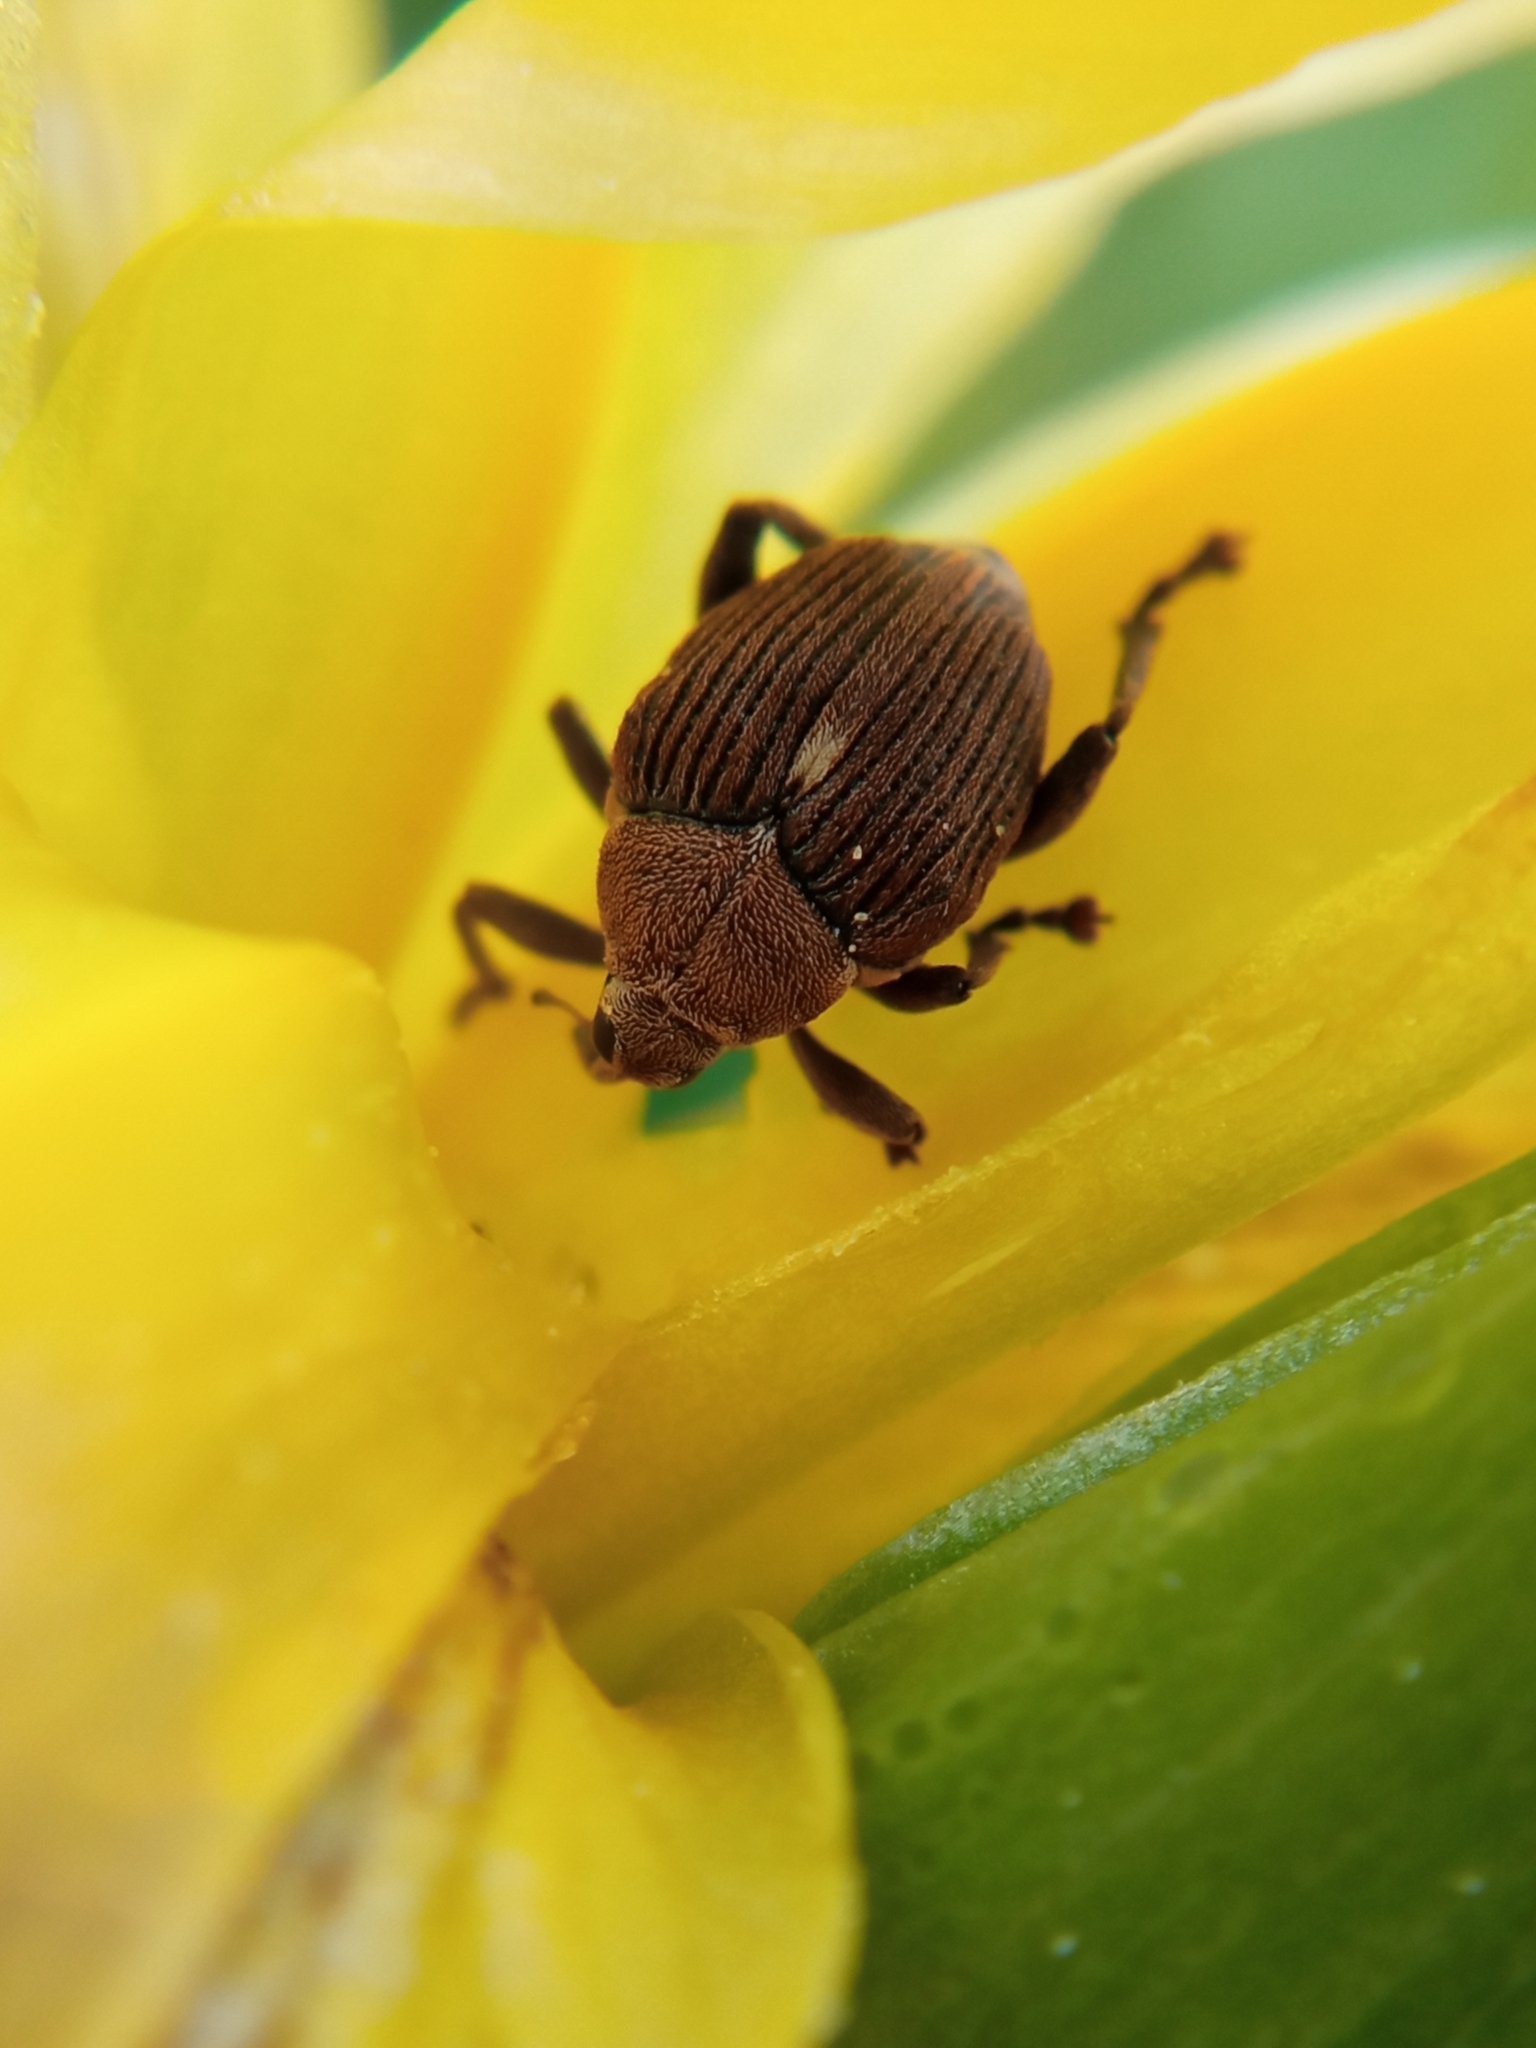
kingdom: Animalia
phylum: Arthropoda
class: Insecta
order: Coleoptera
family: Curculionidae
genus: Mononychus
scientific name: Mononychus punctumalbum
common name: Iris weevil
